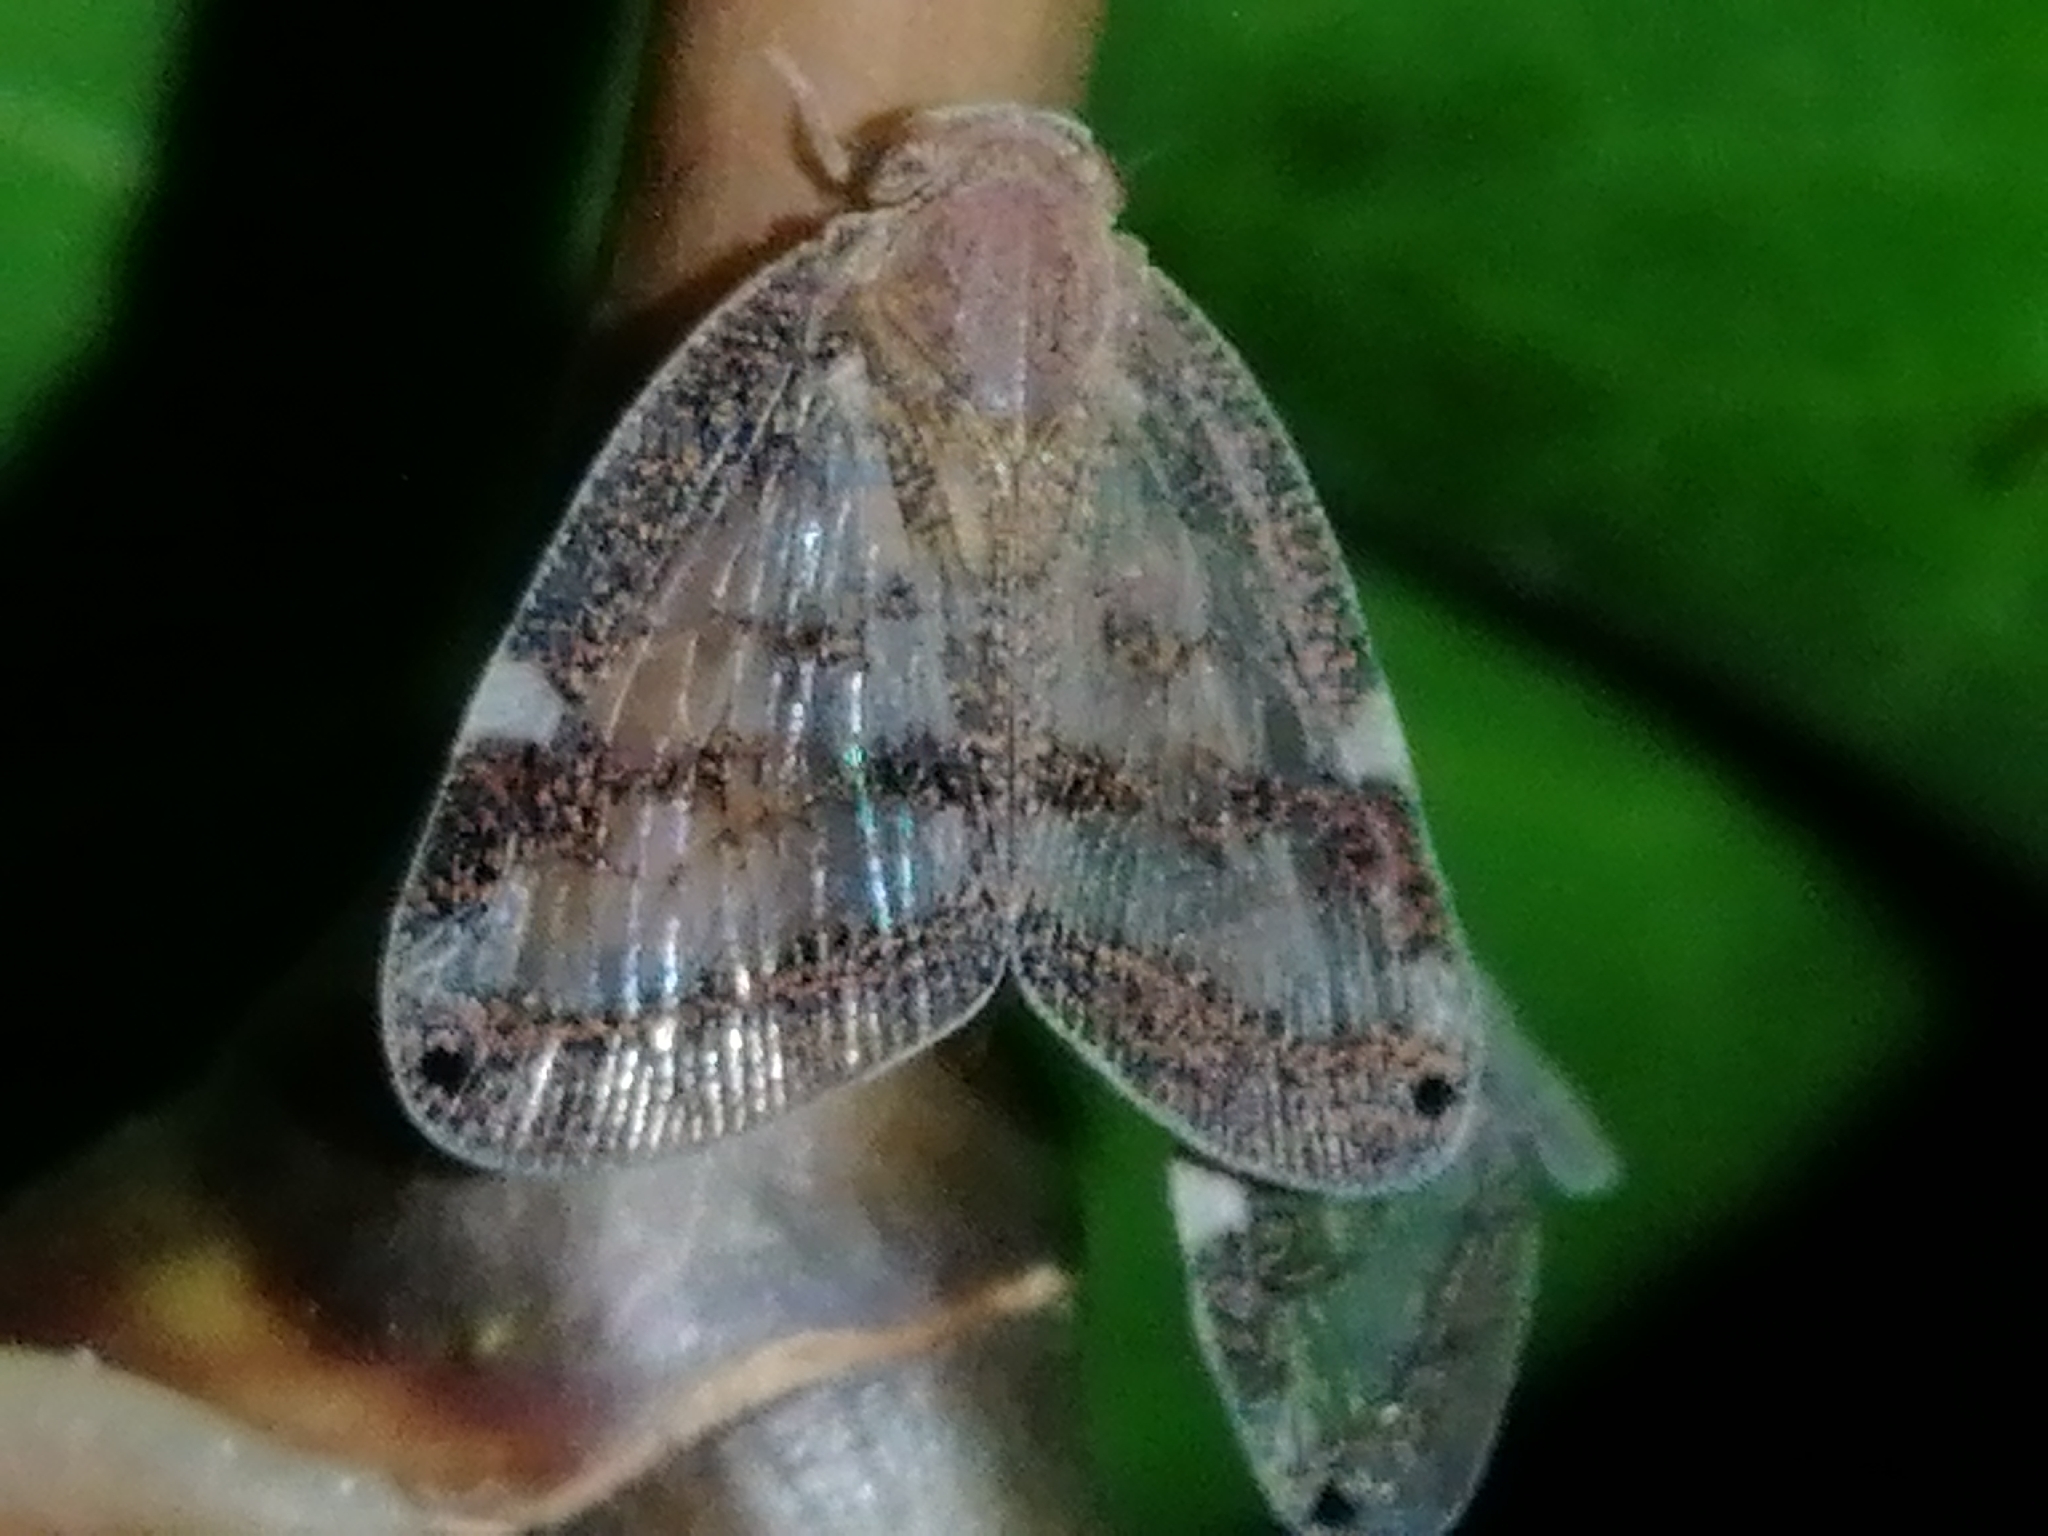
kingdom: Animalia
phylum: Arthropoda
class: Insecta
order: Hemiptera
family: Ricaniidae
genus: Scolypopa
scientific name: Scolypopa australis
